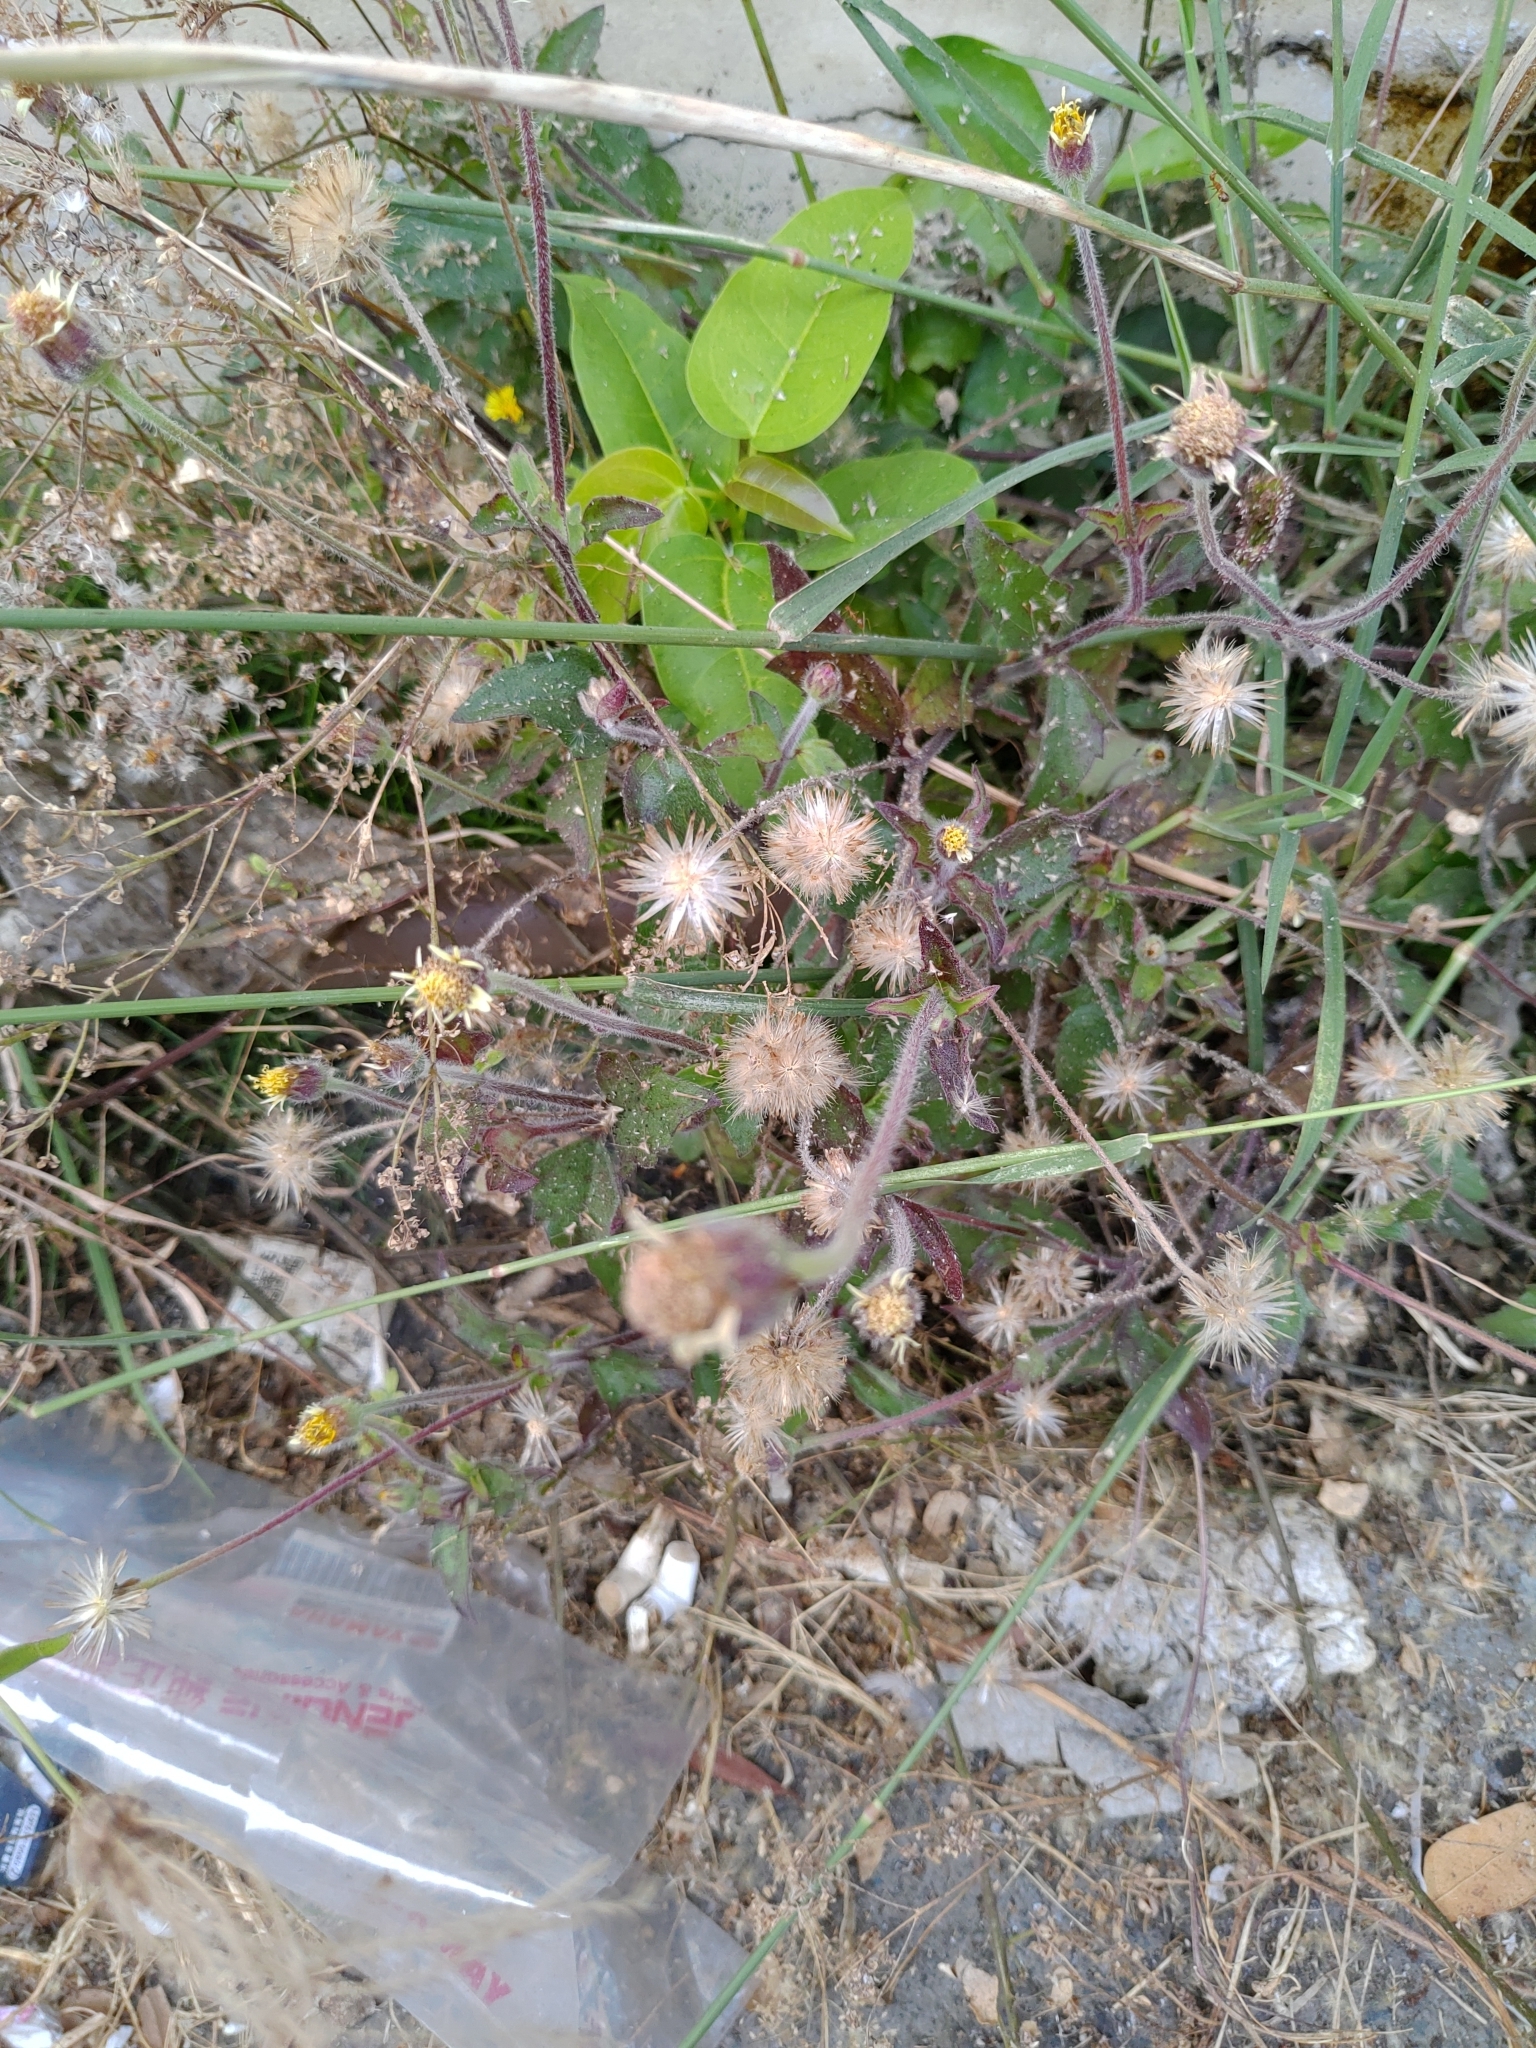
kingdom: Plantae
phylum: Tracheophyta
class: Magnoliopsida
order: Asterales
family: Asteraceae
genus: Tridax
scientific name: Tridax procumbens
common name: Coatbuttons
